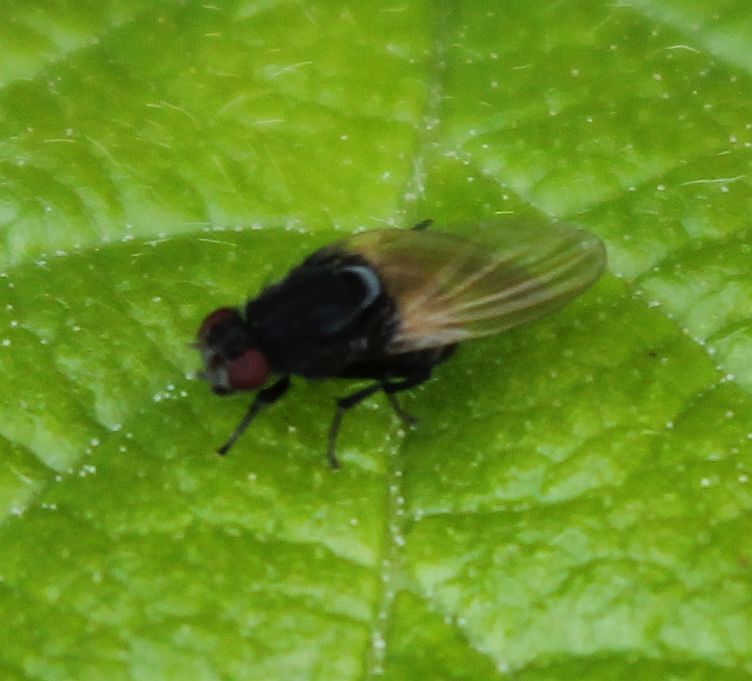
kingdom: Animalia
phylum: Arthropoda
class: Insecta
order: Diptera
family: Lauxaniidae
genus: Minettia
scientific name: Minettia longipennis
